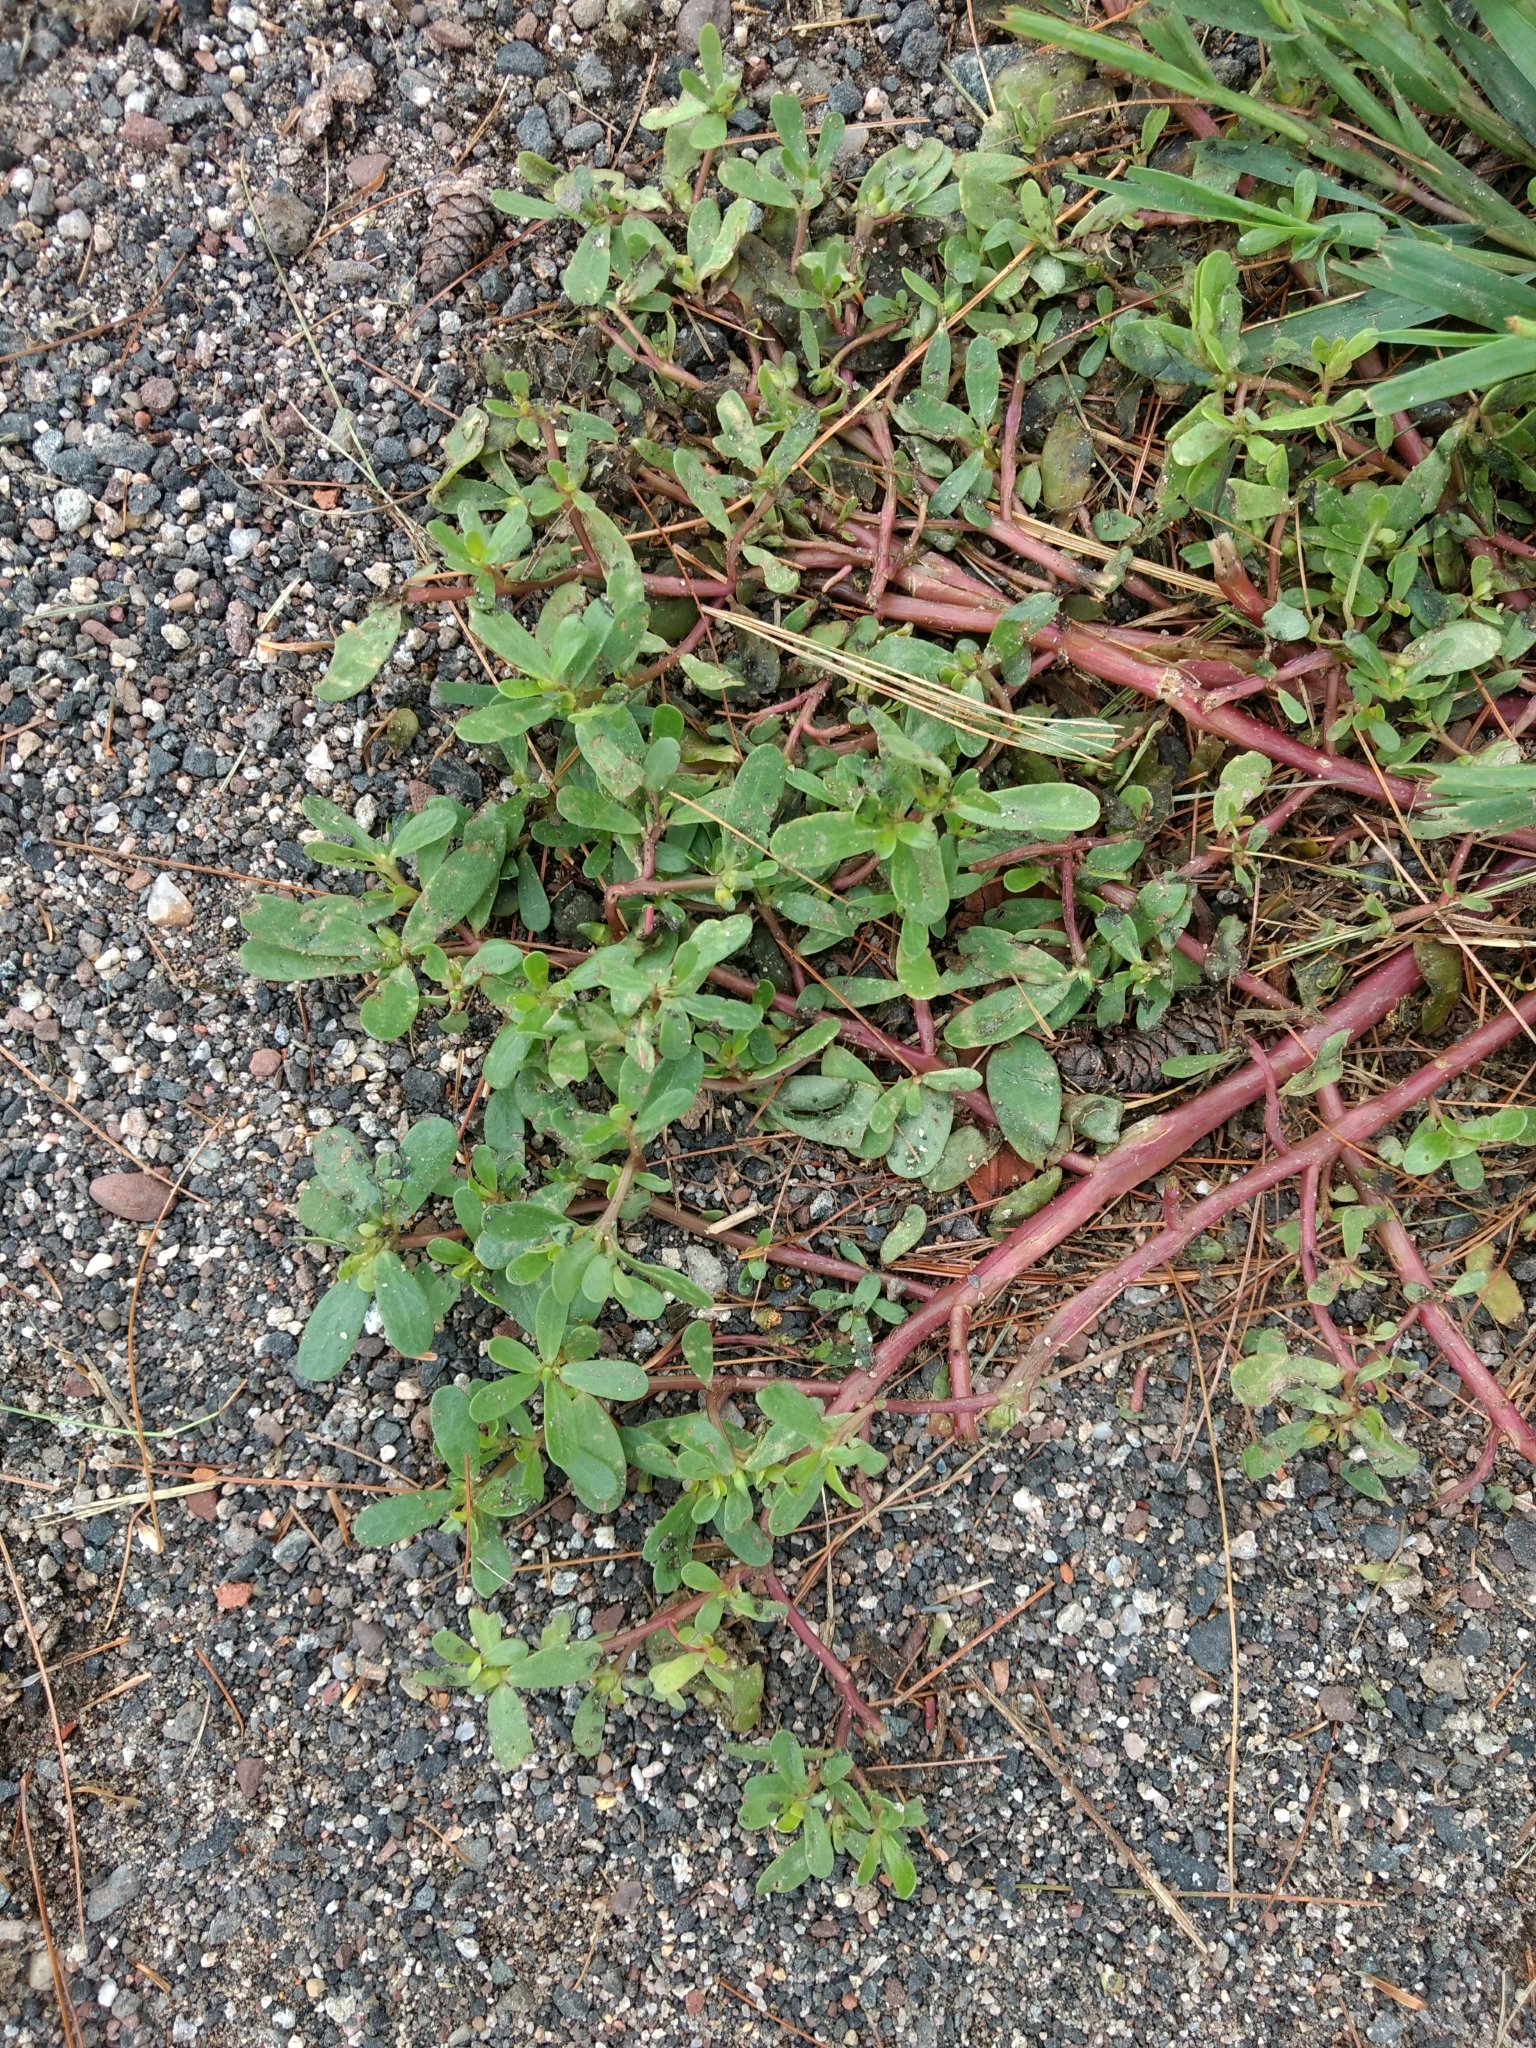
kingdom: Plantae
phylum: Tracheophyta
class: Magnoliopsida
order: Caryophyllales
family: Portulacaceae
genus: Portulaca
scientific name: Portulaca oleracea
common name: Common purslane
